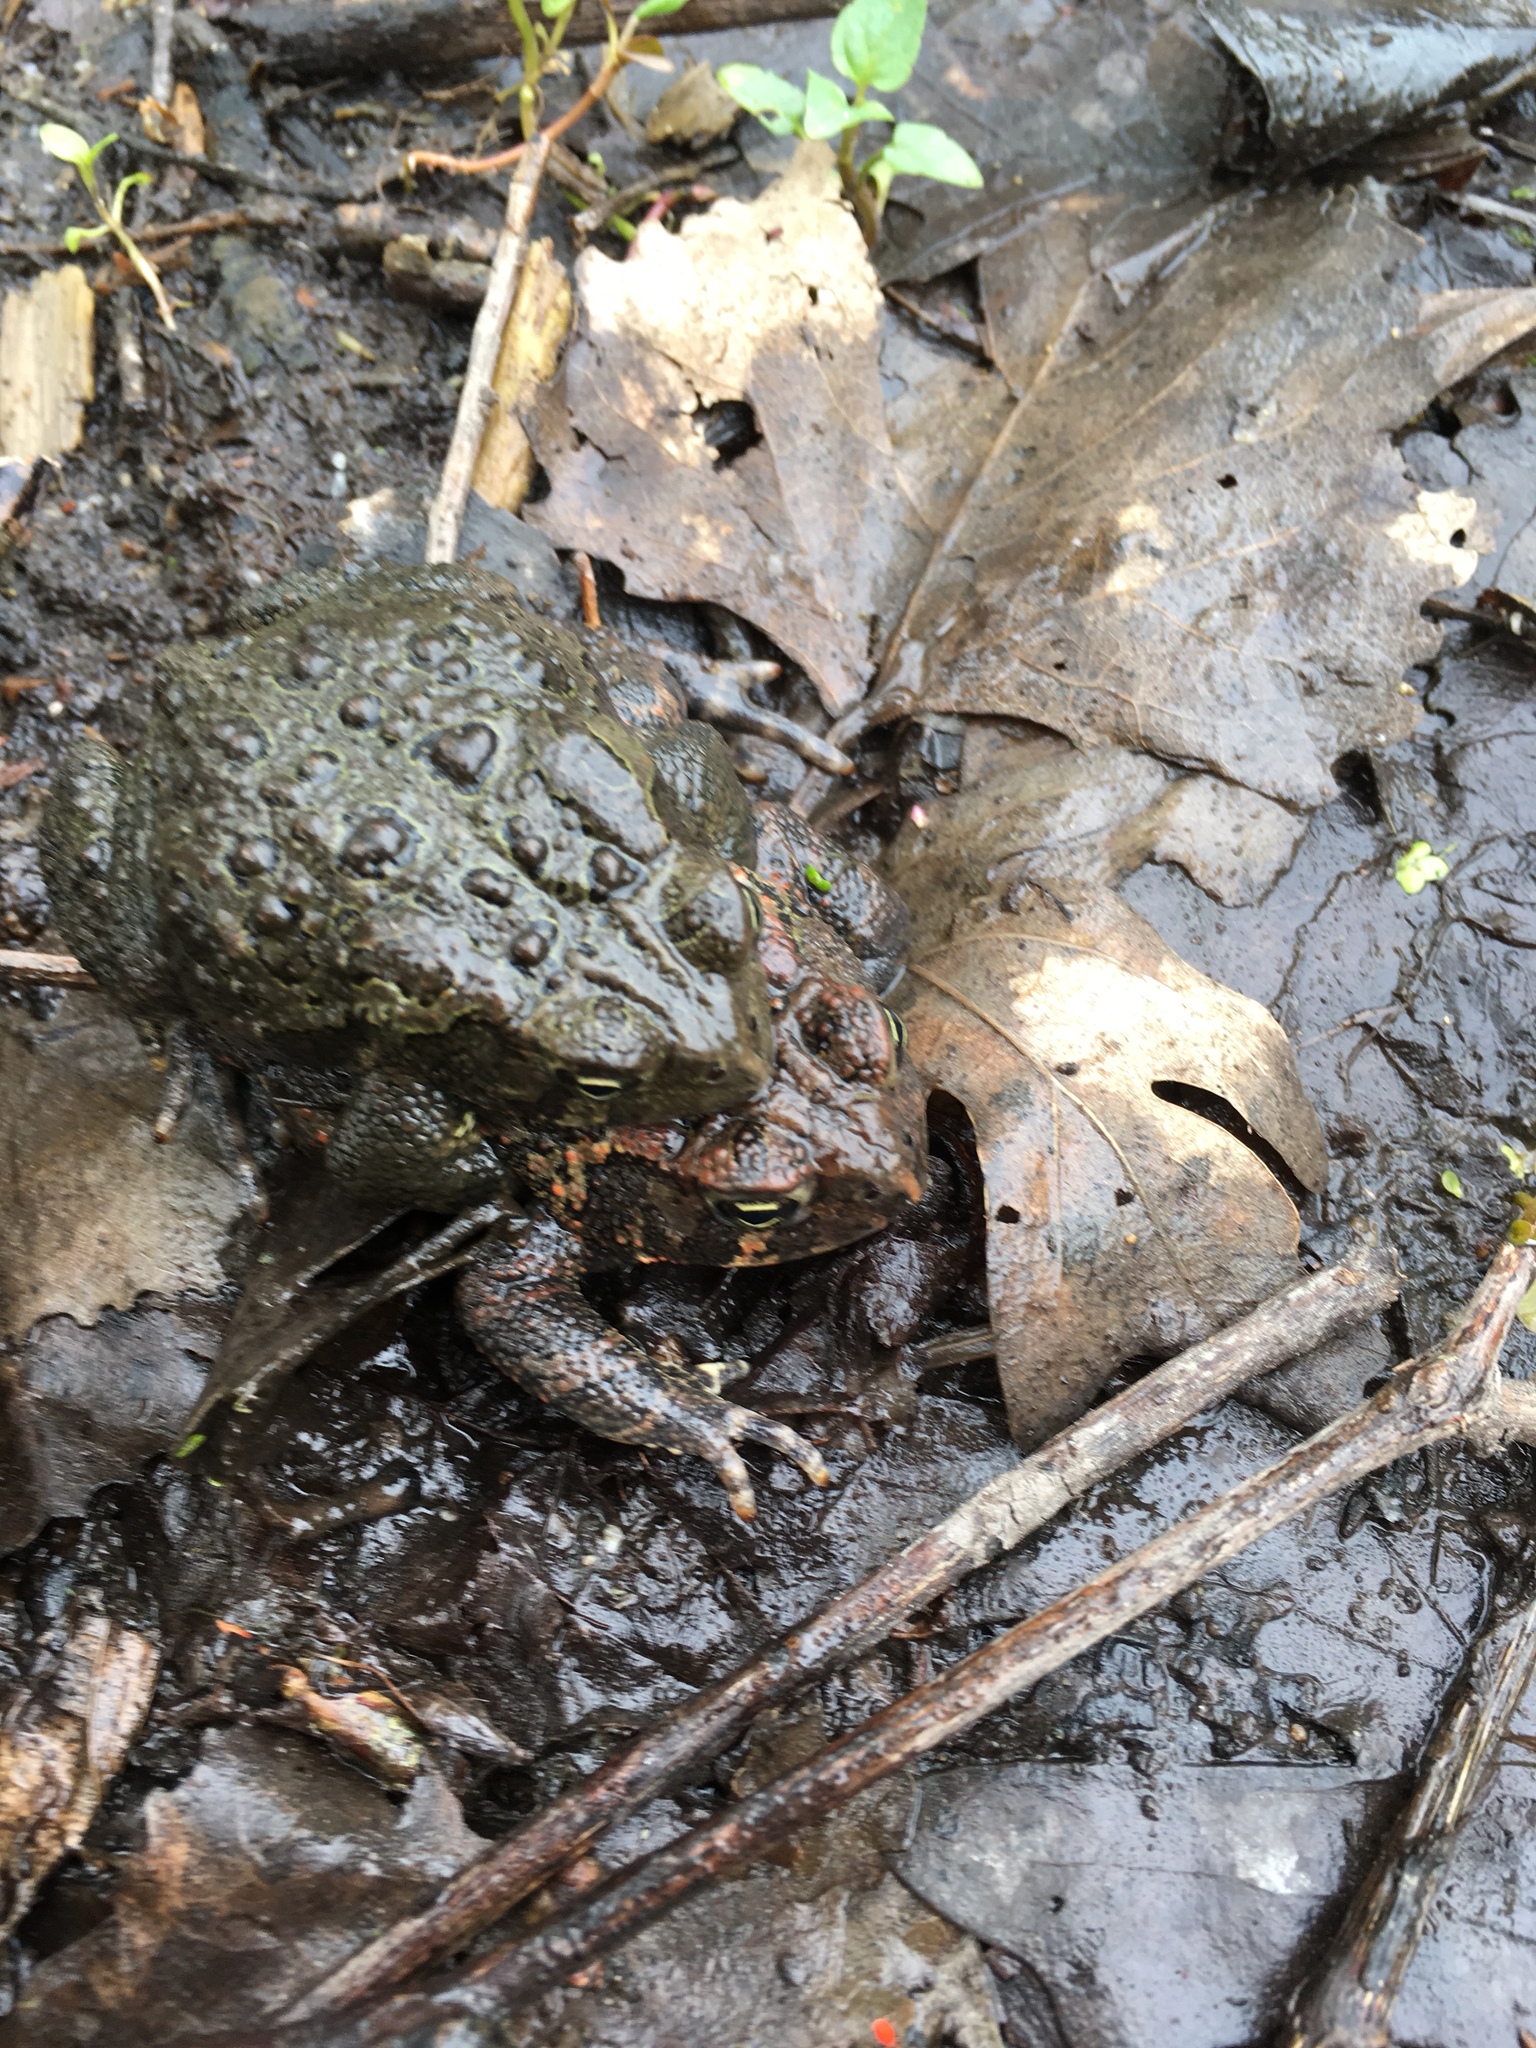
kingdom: Animalia
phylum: Chordata
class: Amphibia
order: Anura
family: Bufonidae
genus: Anaxyrus
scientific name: Anaxyrus americanus
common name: American toad
